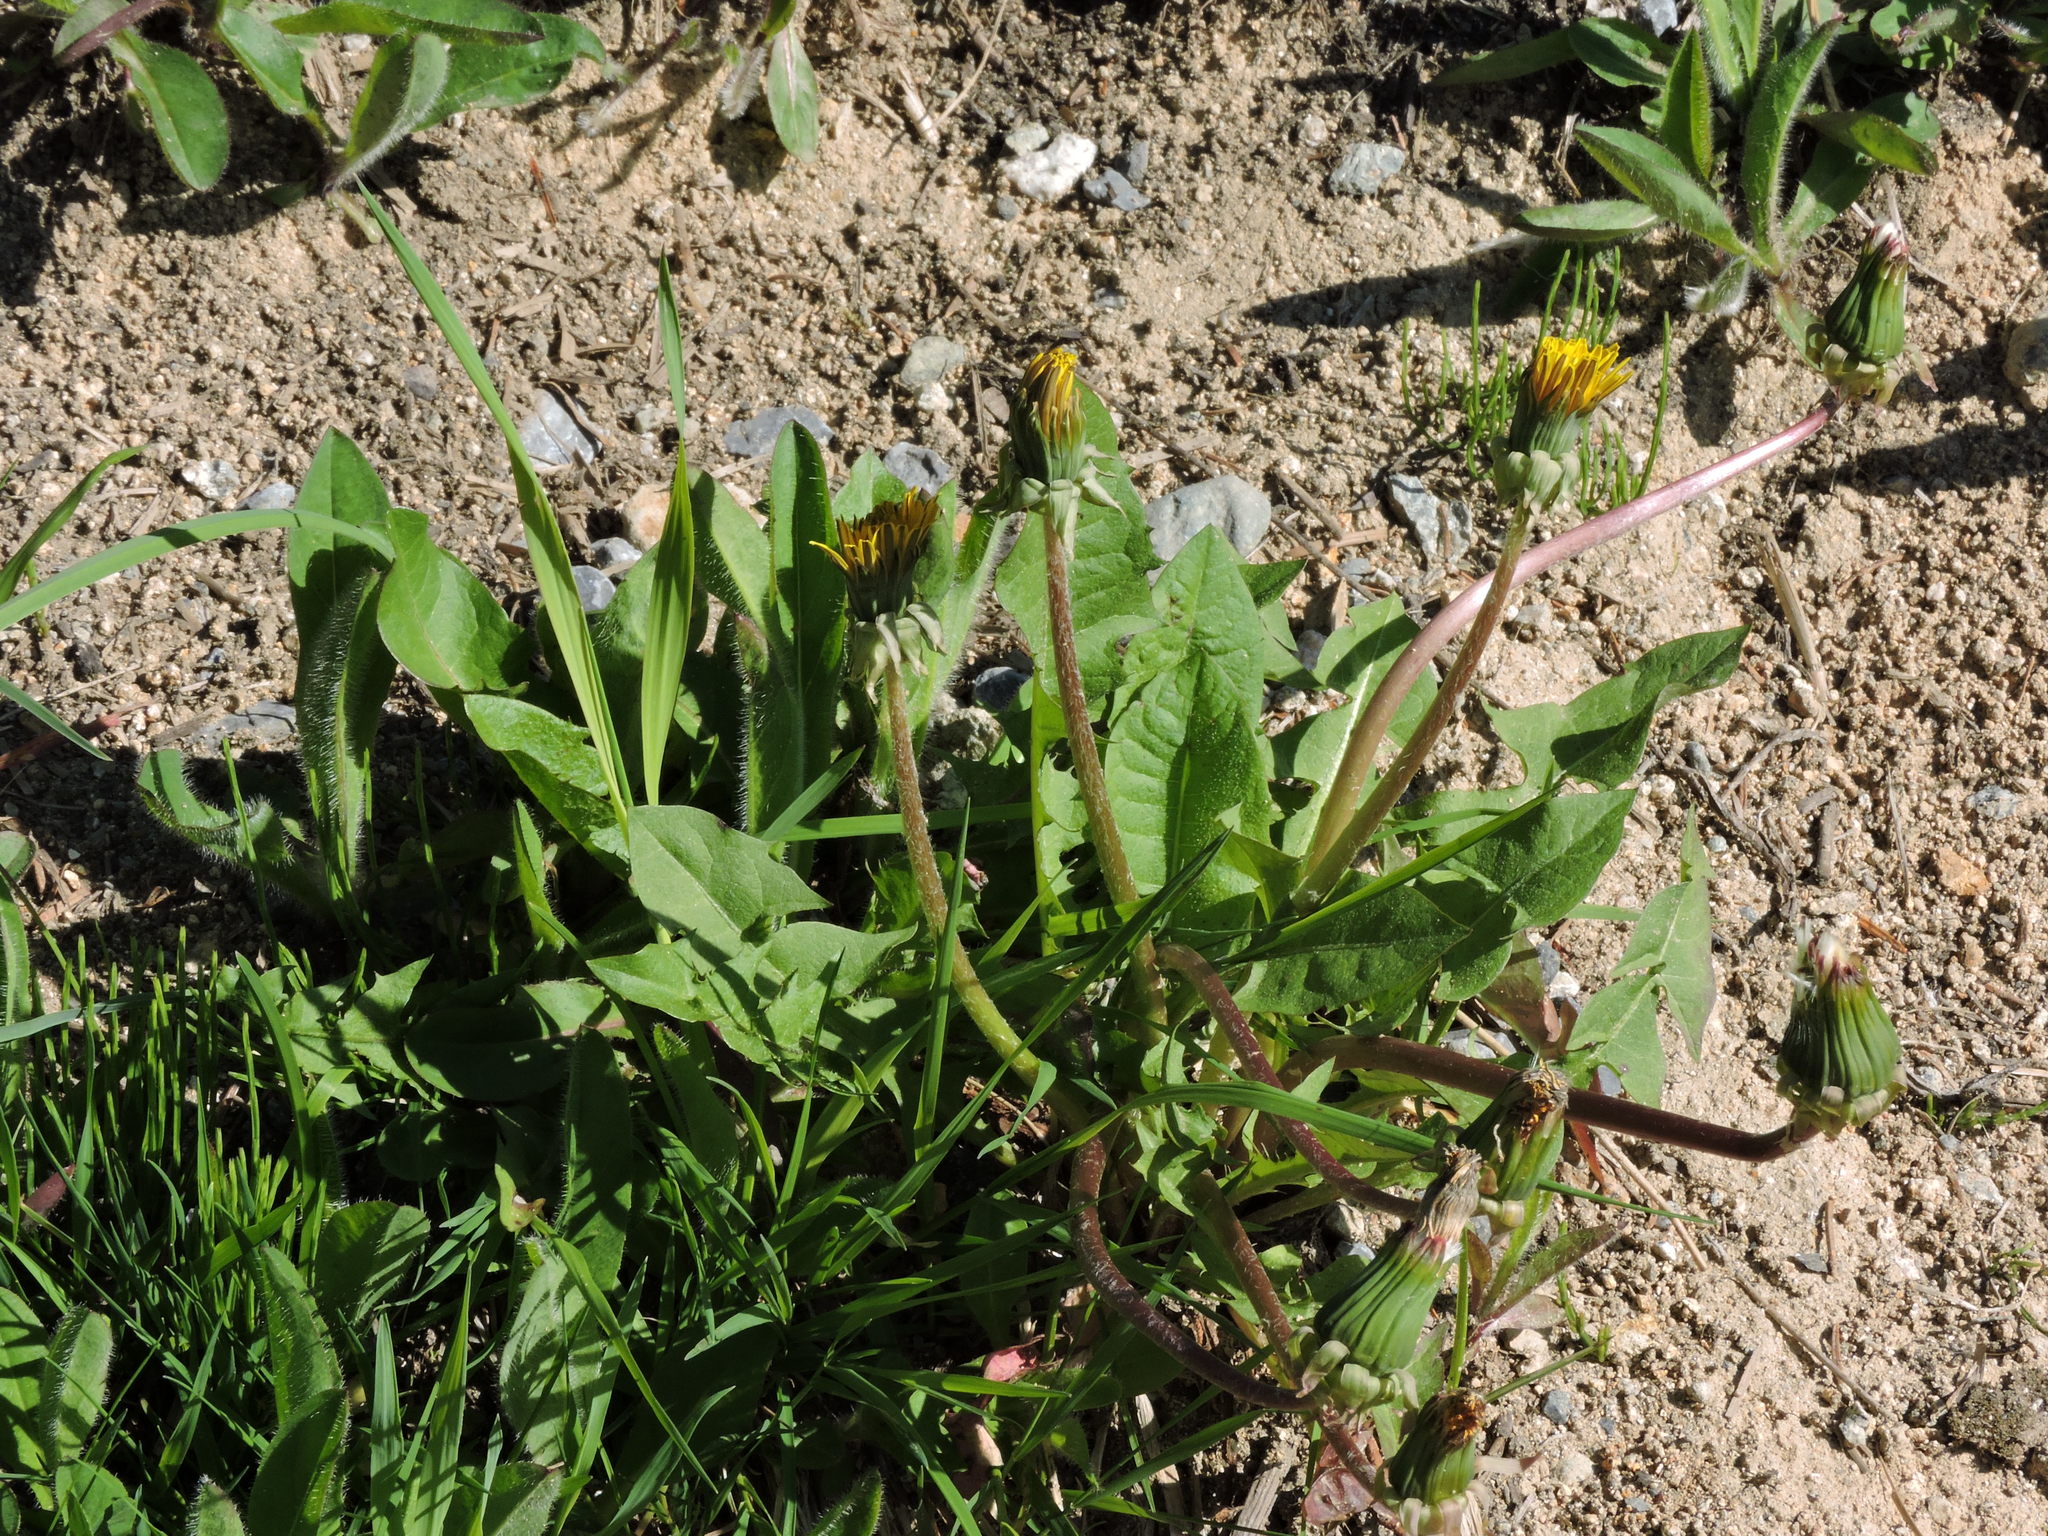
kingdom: Plantae
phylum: Tracheophyta
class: Magnoliopsida
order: Asterales
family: Asteraceae
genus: Taraxacum
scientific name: Taraxacum officinale
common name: Common dandelion
